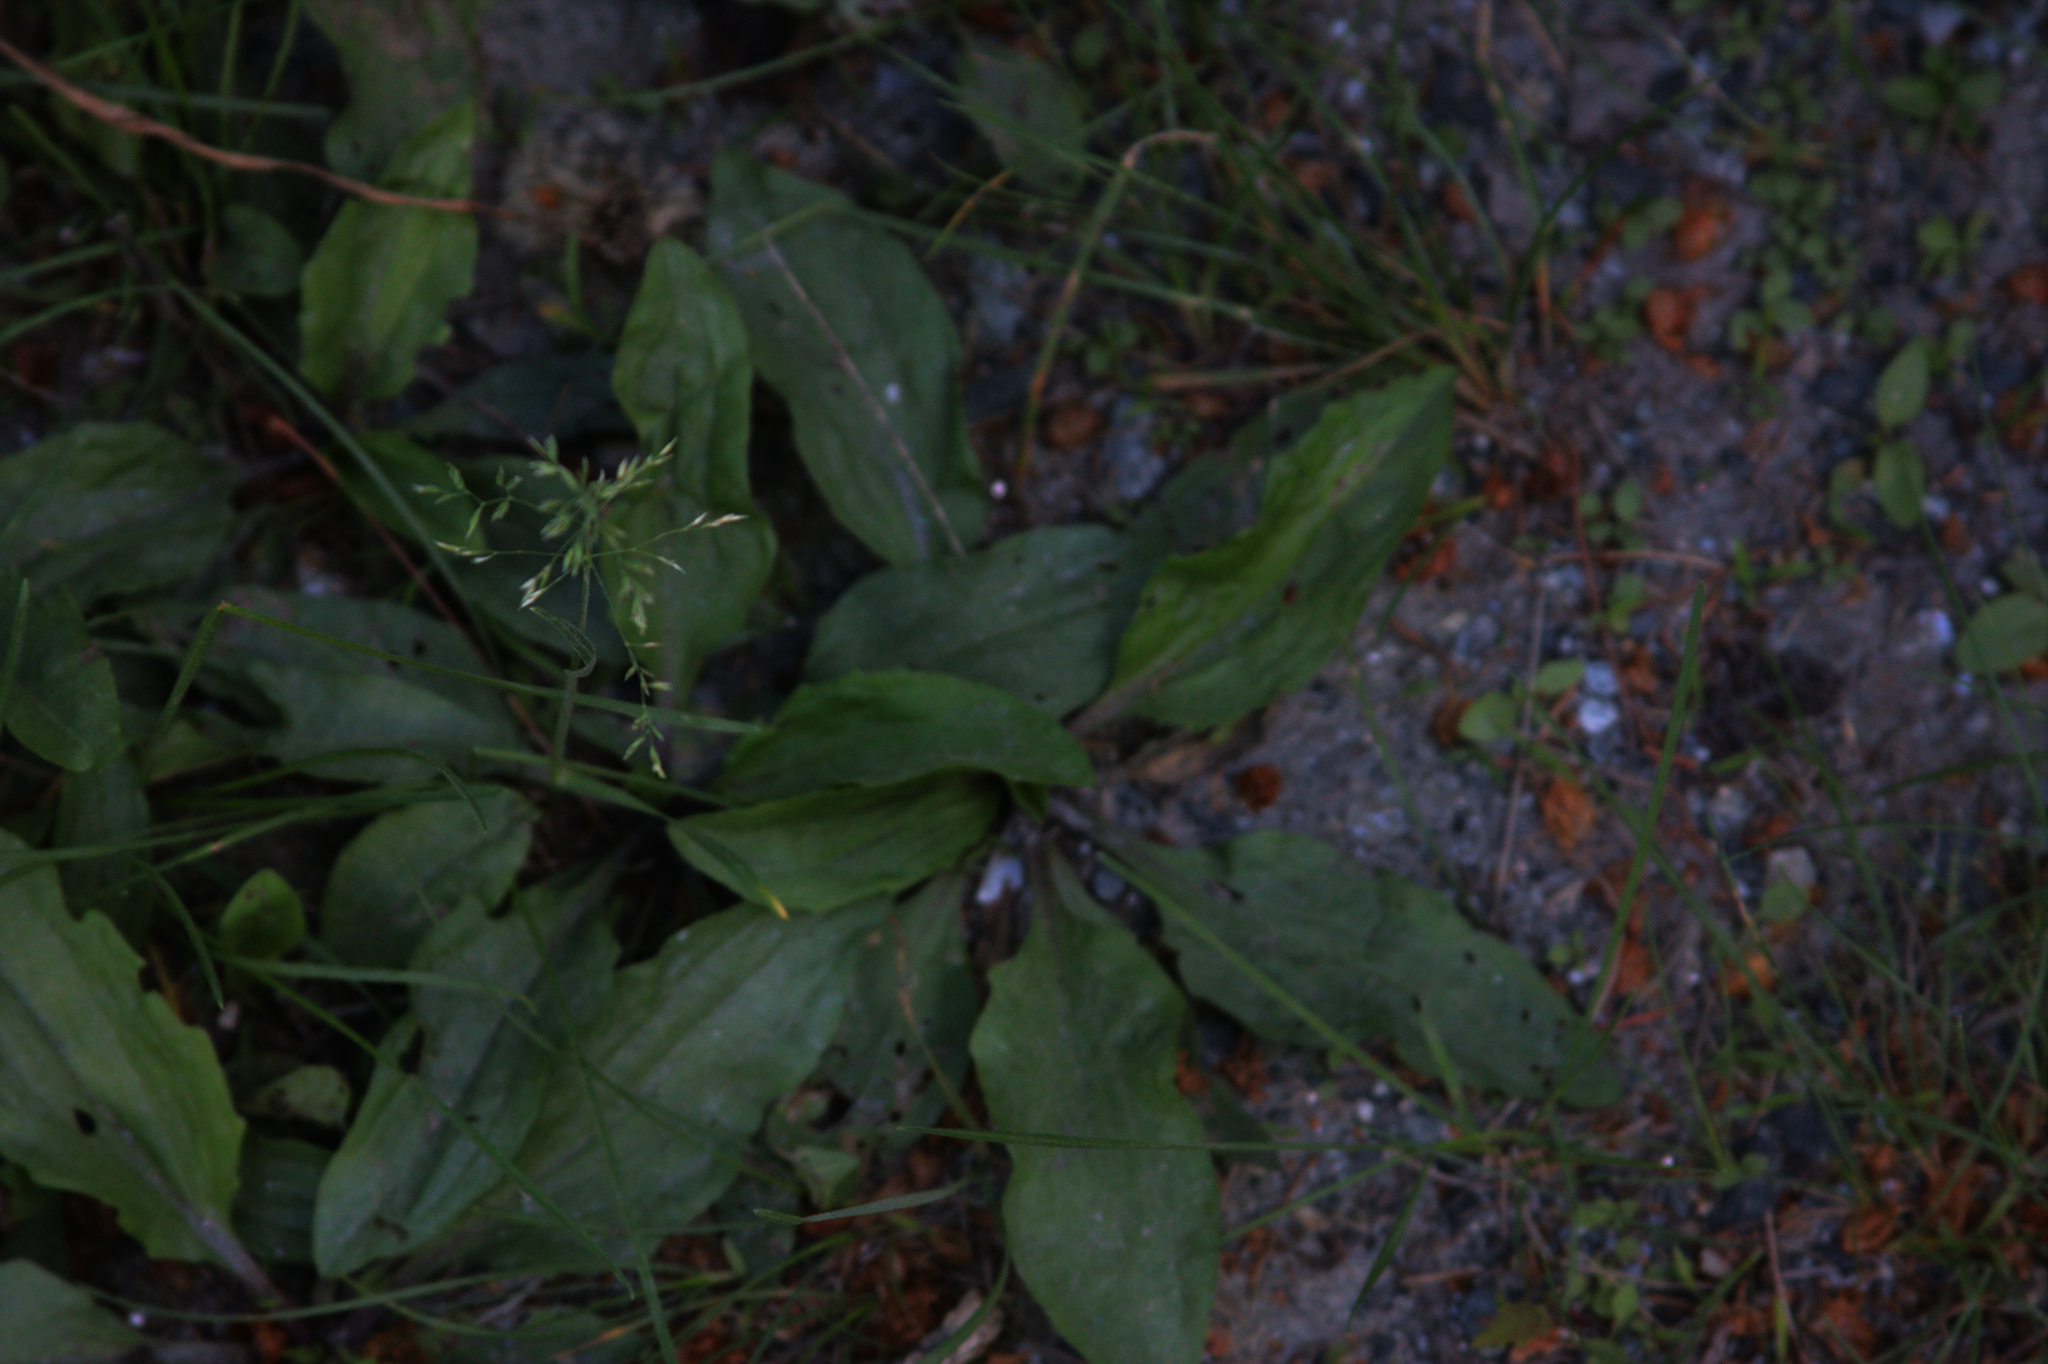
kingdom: Plantae
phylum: Tracheophyta
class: Magnoliopsida
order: Lamiales
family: Plantaginaceae
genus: Plantago
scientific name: Plantago rugelii
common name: American plantain
